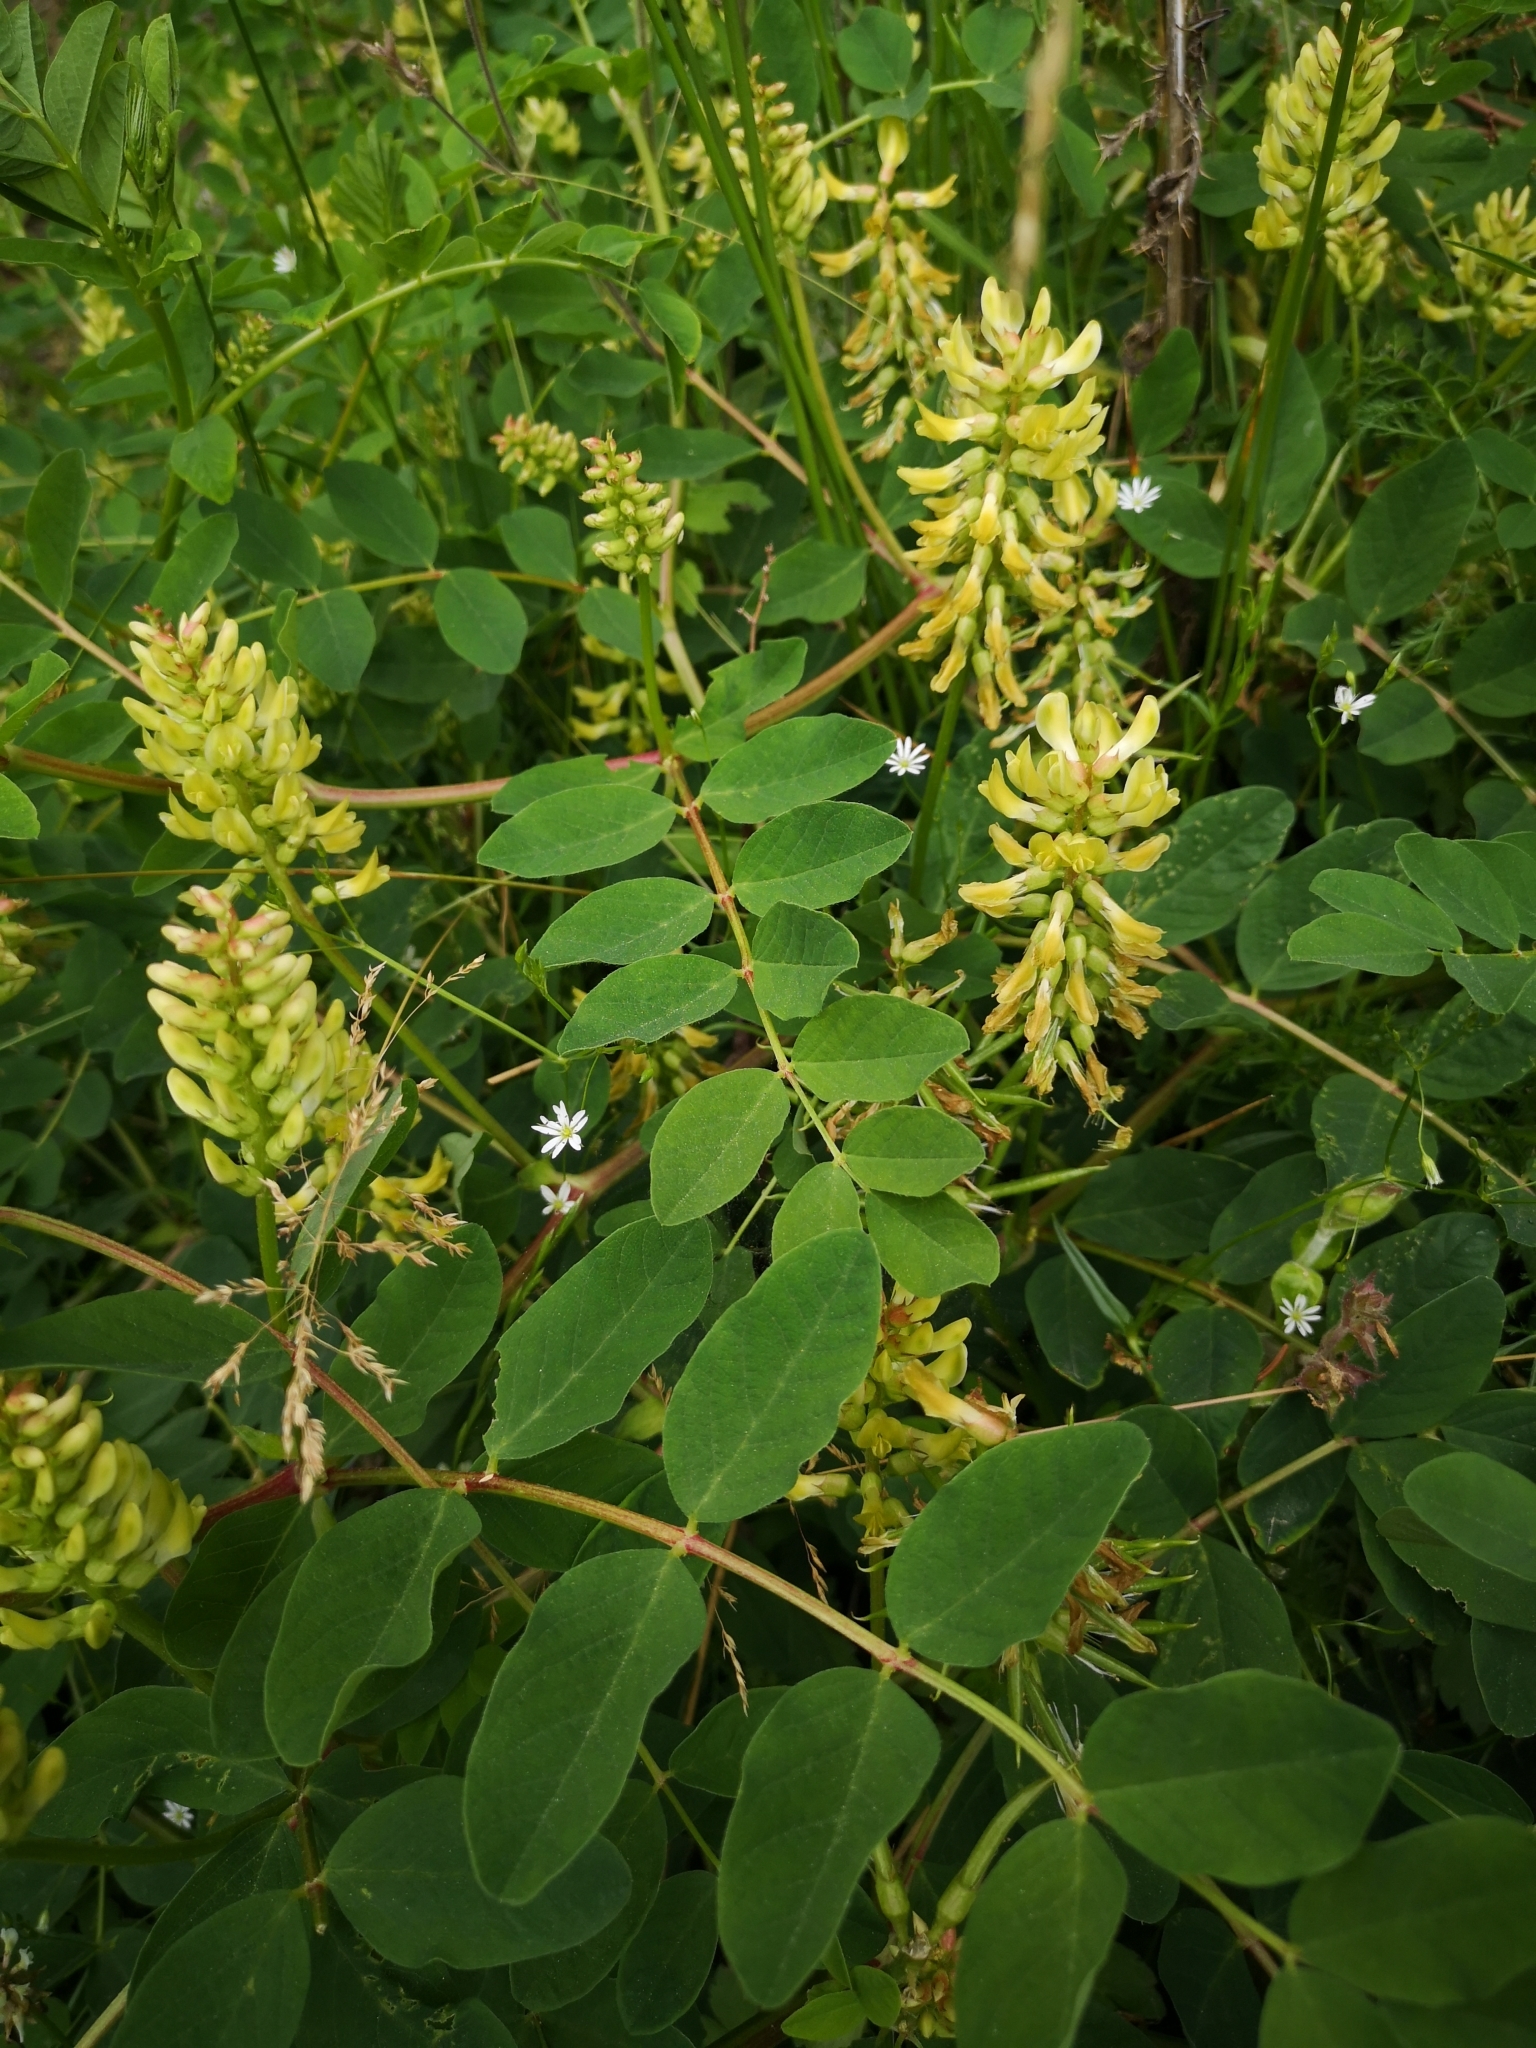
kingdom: Plantae
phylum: Tracheophyta
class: Magnoliopsida
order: Fabales
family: Fabaceae
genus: Astragalus
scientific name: Astragalus glycyphyllos
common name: Wild liquorice
